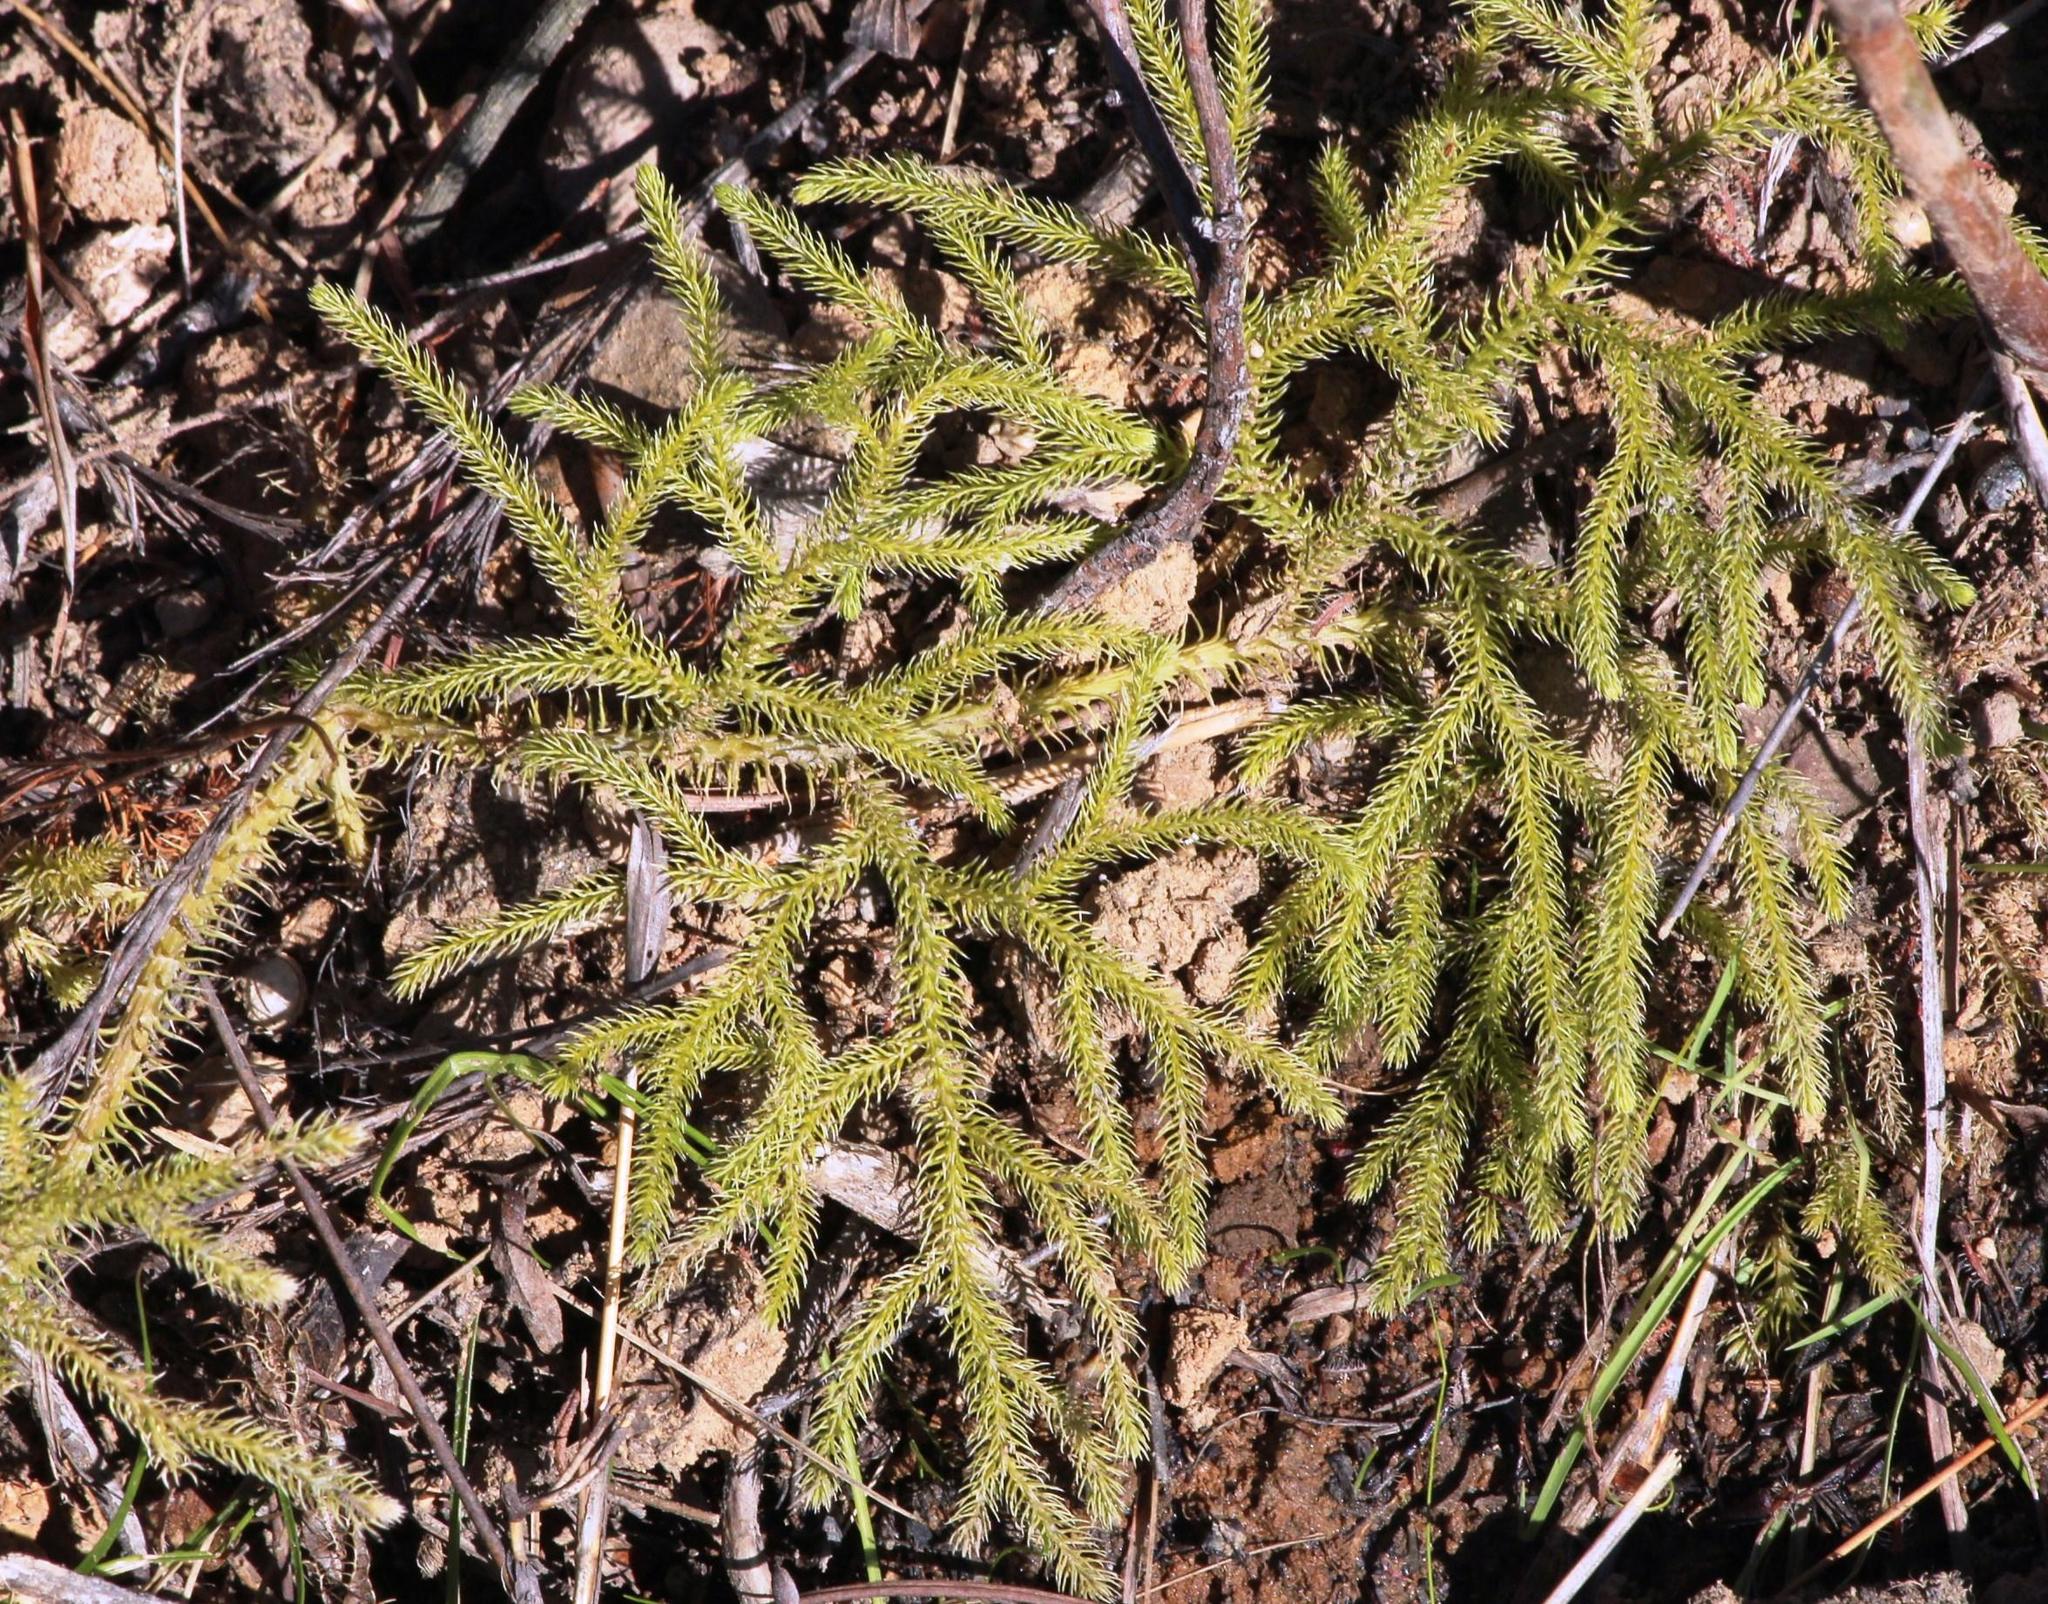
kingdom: Plantae
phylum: Tracheophyta
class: Lycopodiopsida
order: Lycopodiales
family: Lycopodiaceae
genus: Palhinhaea
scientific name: Palhinhaea cernua
